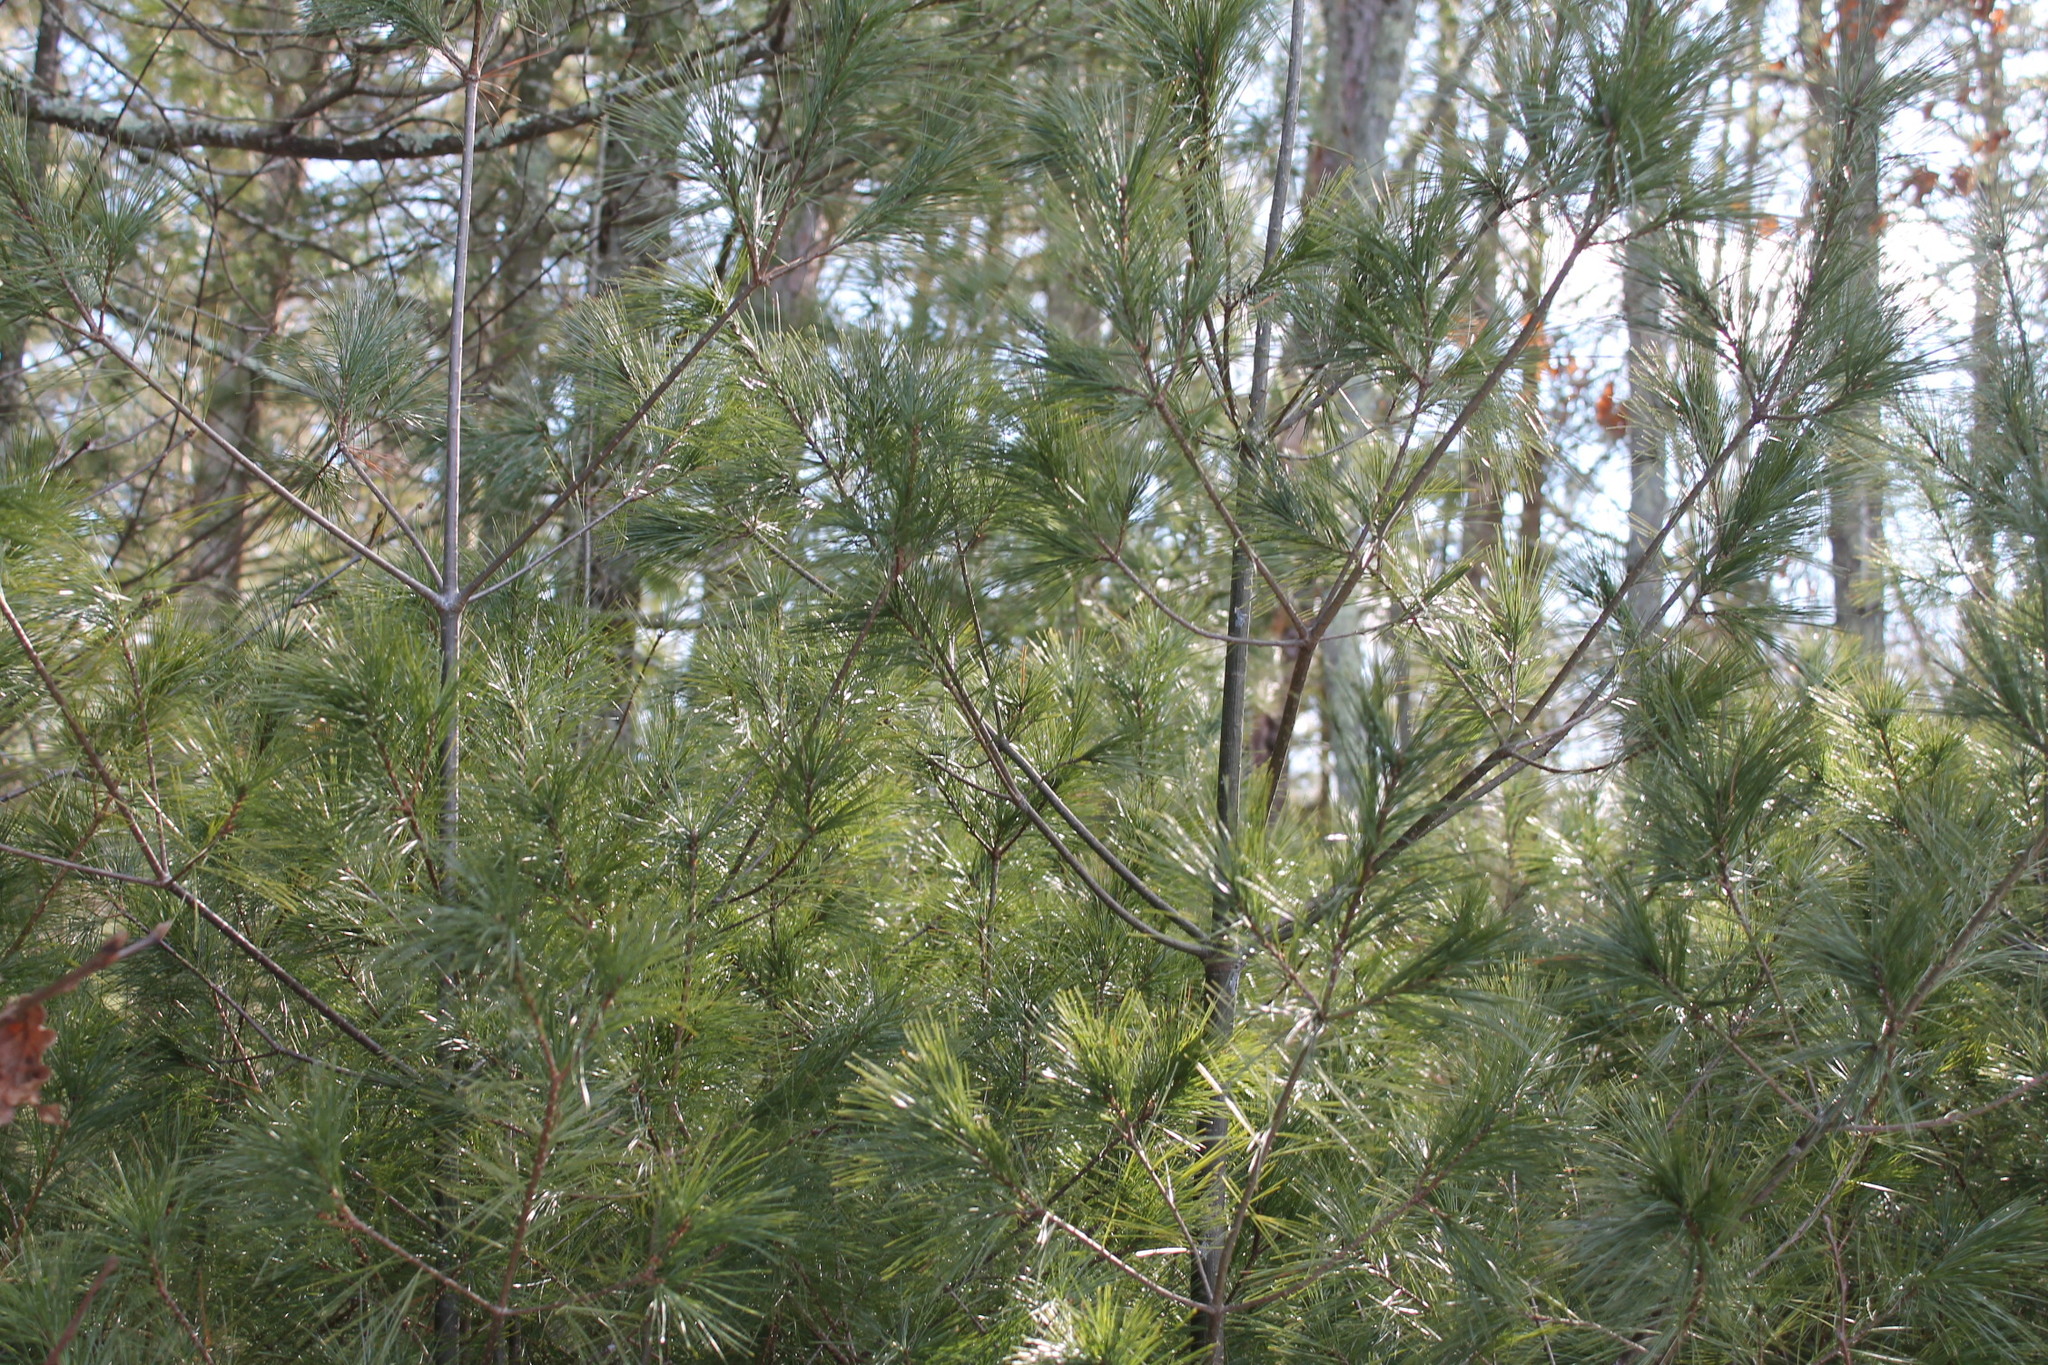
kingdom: Plantae
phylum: Tracheophyta
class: Pinopsida
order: Pinales
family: Pinaceae
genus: Pinus
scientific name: Pinus strobus
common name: Weymouth pine
